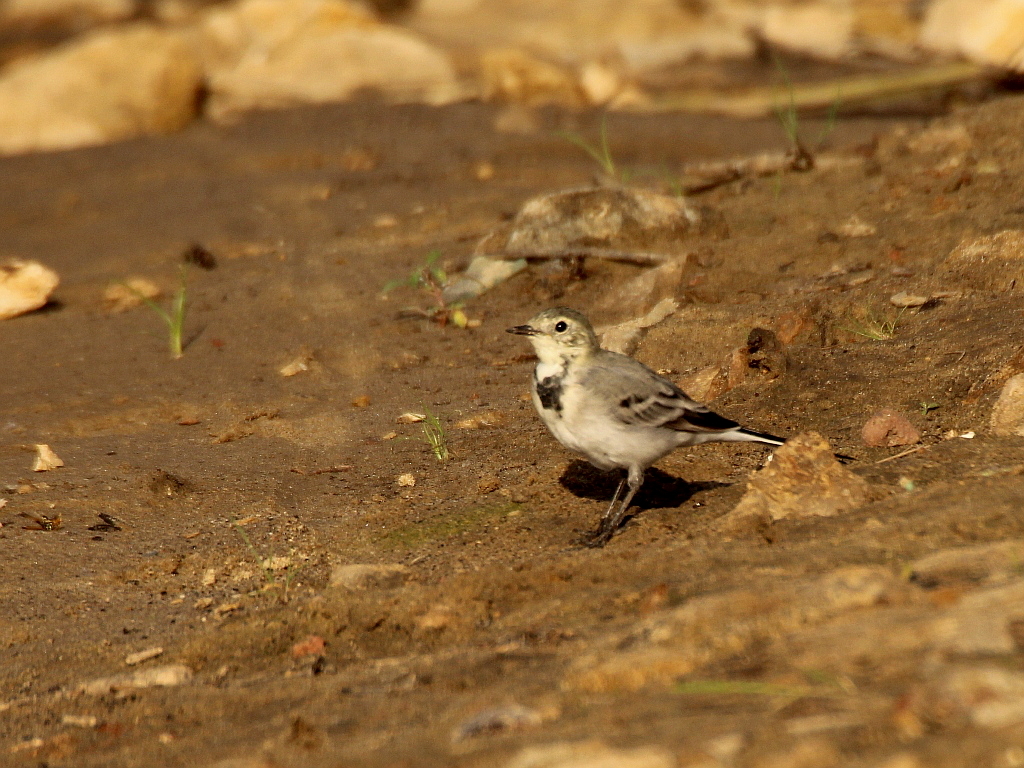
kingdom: Animalia
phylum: Chordata
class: Aves
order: Passeriformes
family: Motacillidae
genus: Motacilla
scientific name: Motacilla alba
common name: White wagtail
